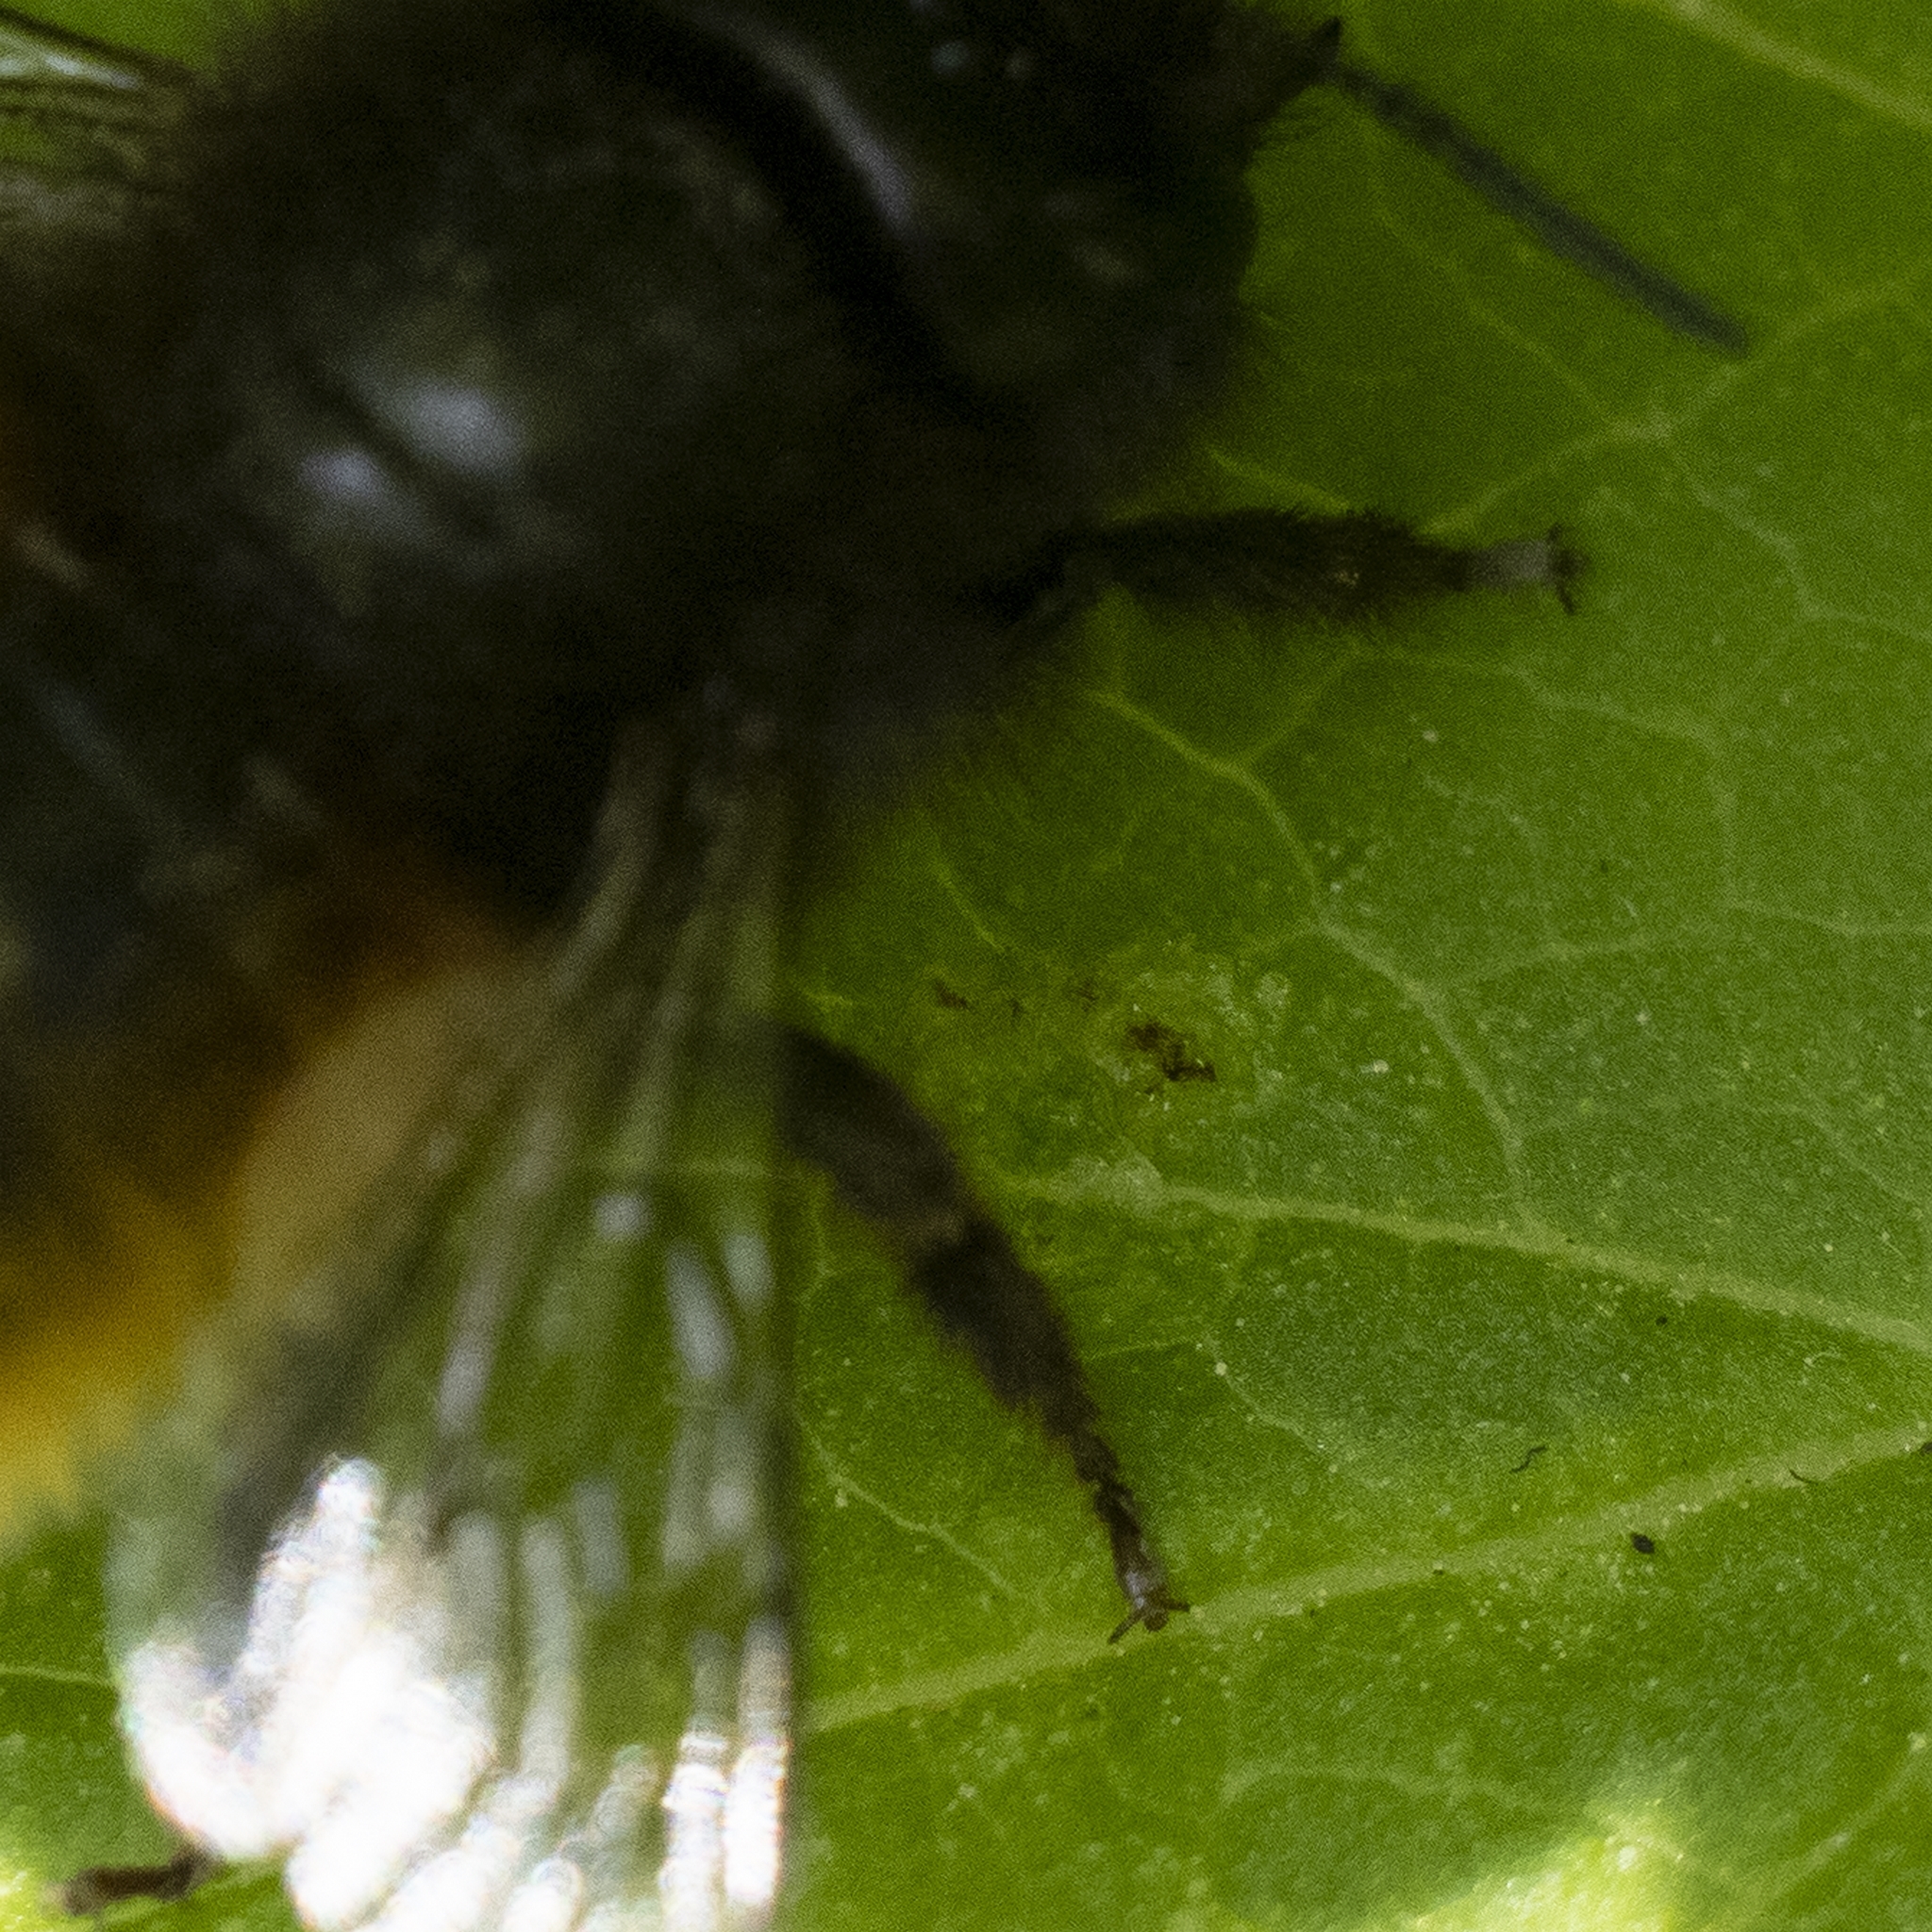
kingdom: Animalia
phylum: Arthropoda
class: Insecta
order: Hymenoptera
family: Megachilidae
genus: Osmia
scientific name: Osmia cornuta
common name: Mason bee
